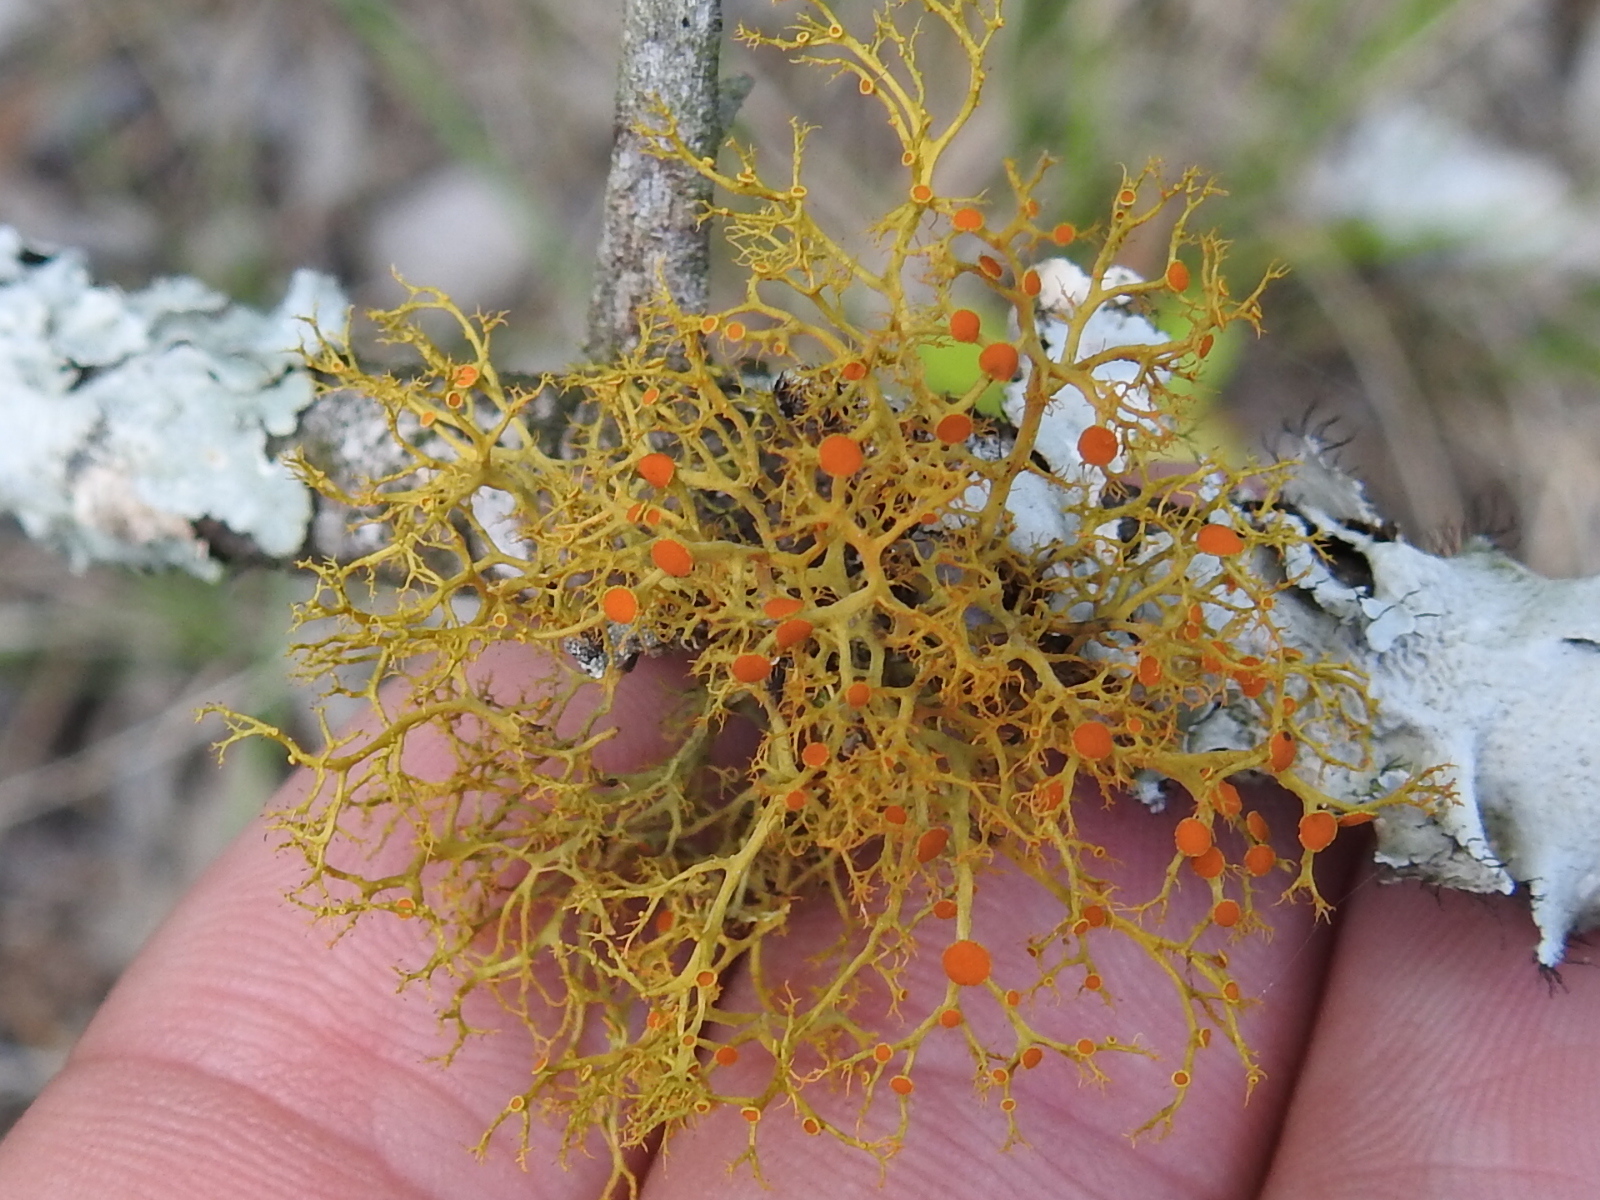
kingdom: Fungi
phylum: Ascomycota
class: Lecanoromycetes
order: Teloschistales
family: Teloschistaceae
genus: Teloschistes
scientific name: Teloschistes exilis
